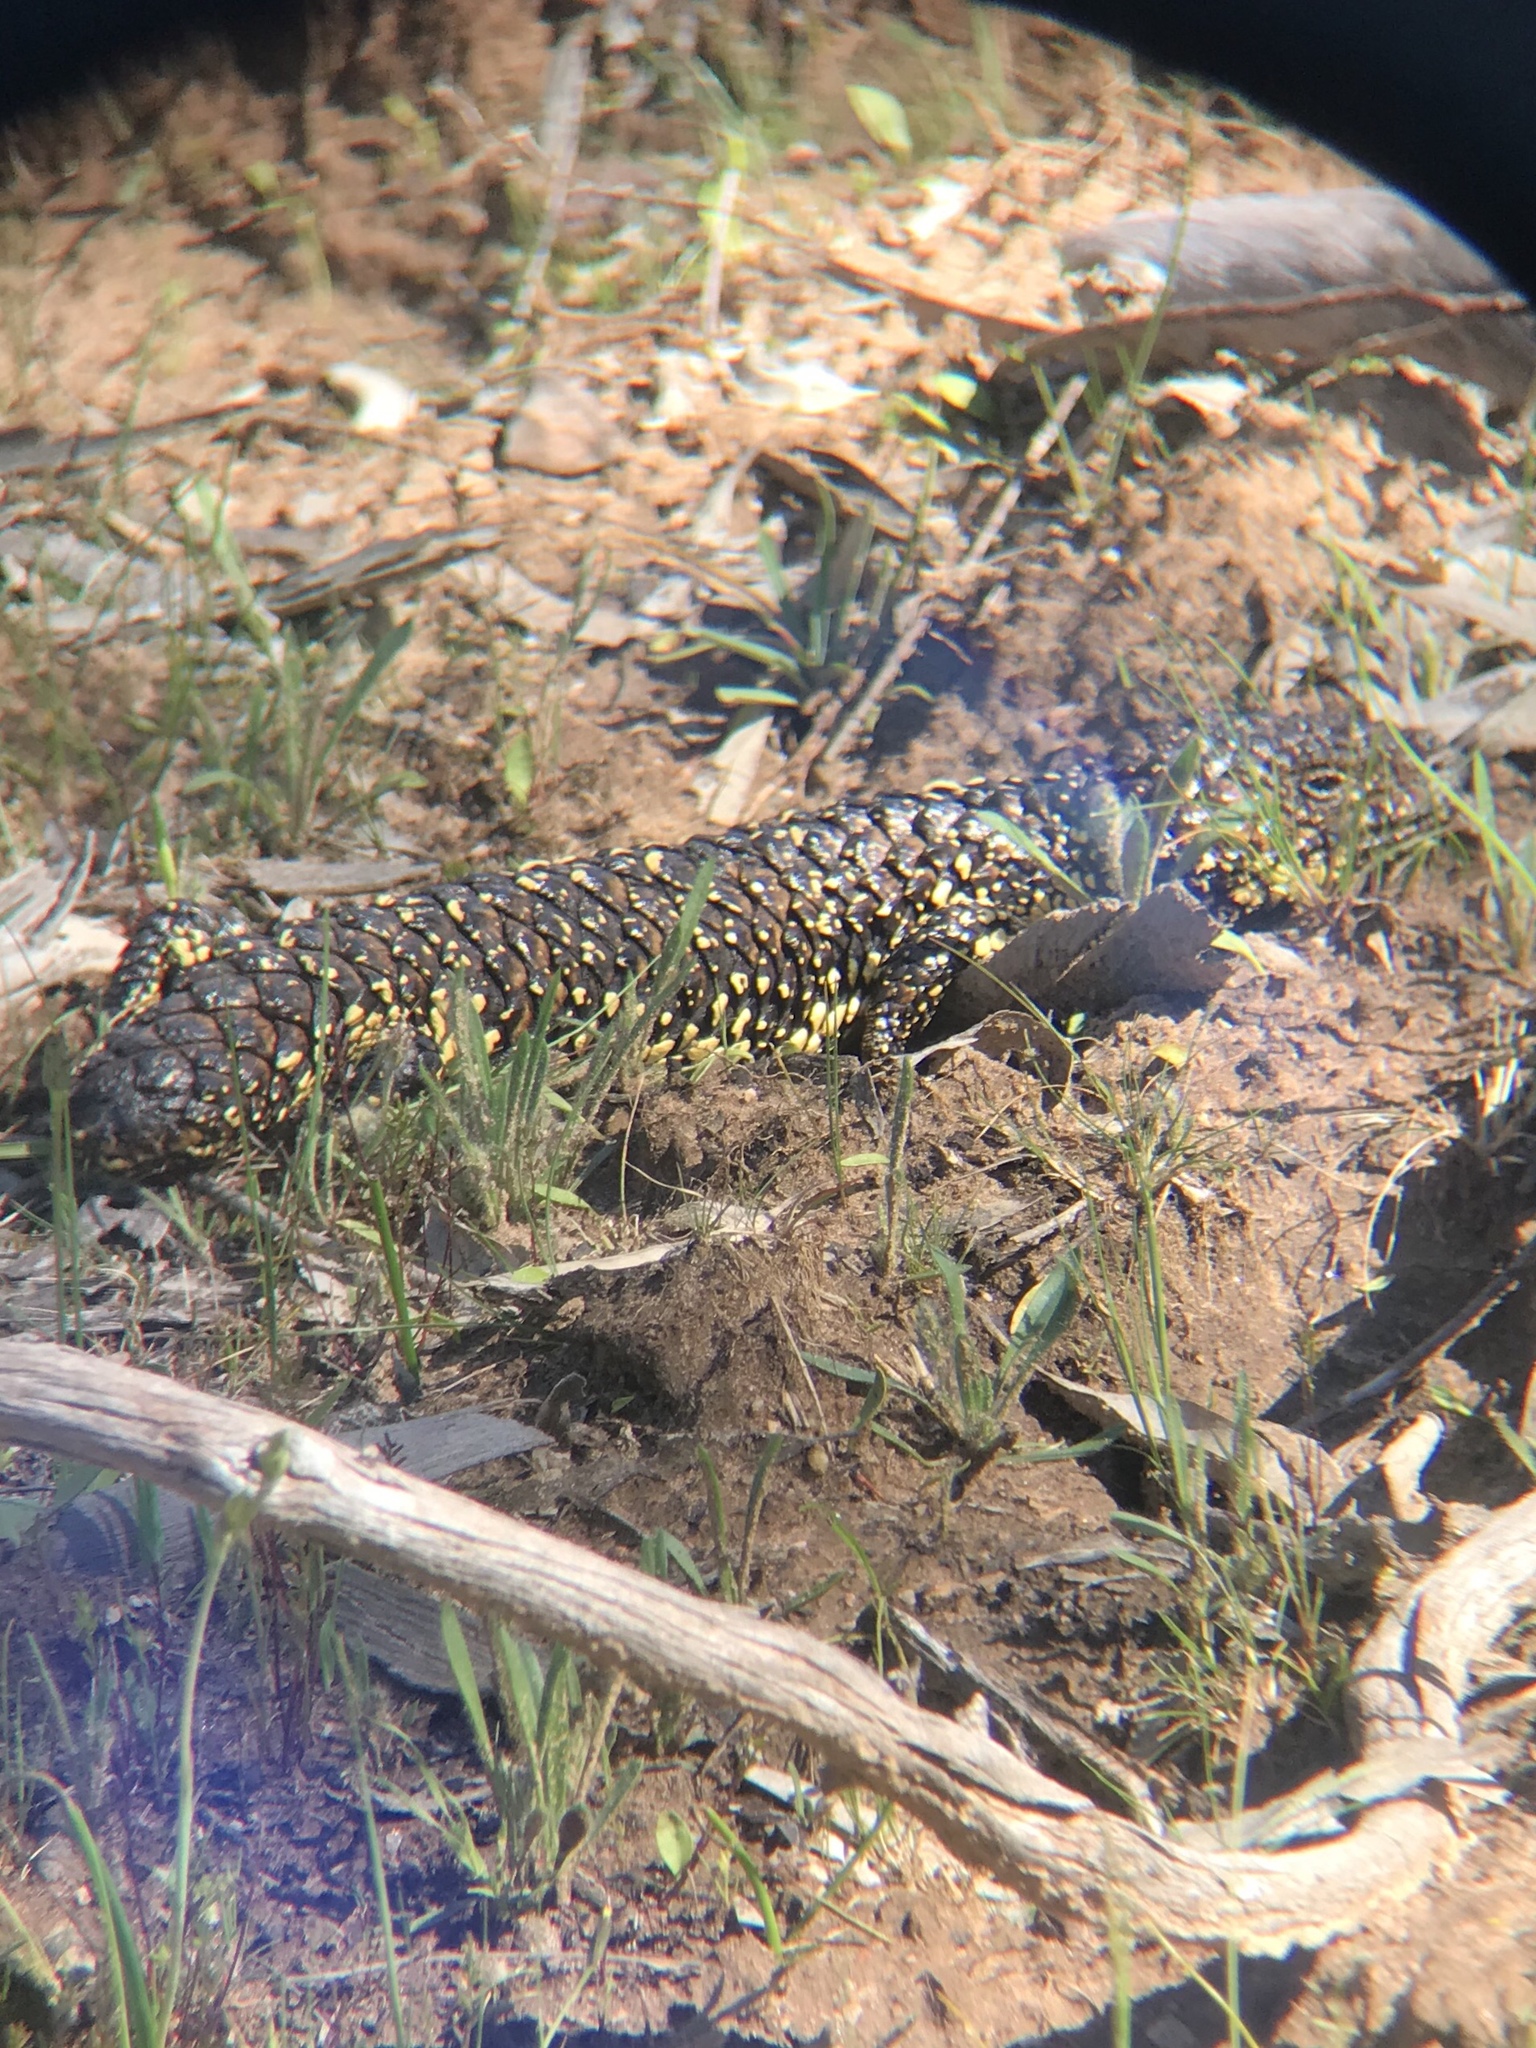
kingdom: Animalia
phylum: Chordata
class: Squamata
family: Scincidae
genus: Tiliqua
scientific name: Tiliqua rugosa
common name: Pinecone lizard
